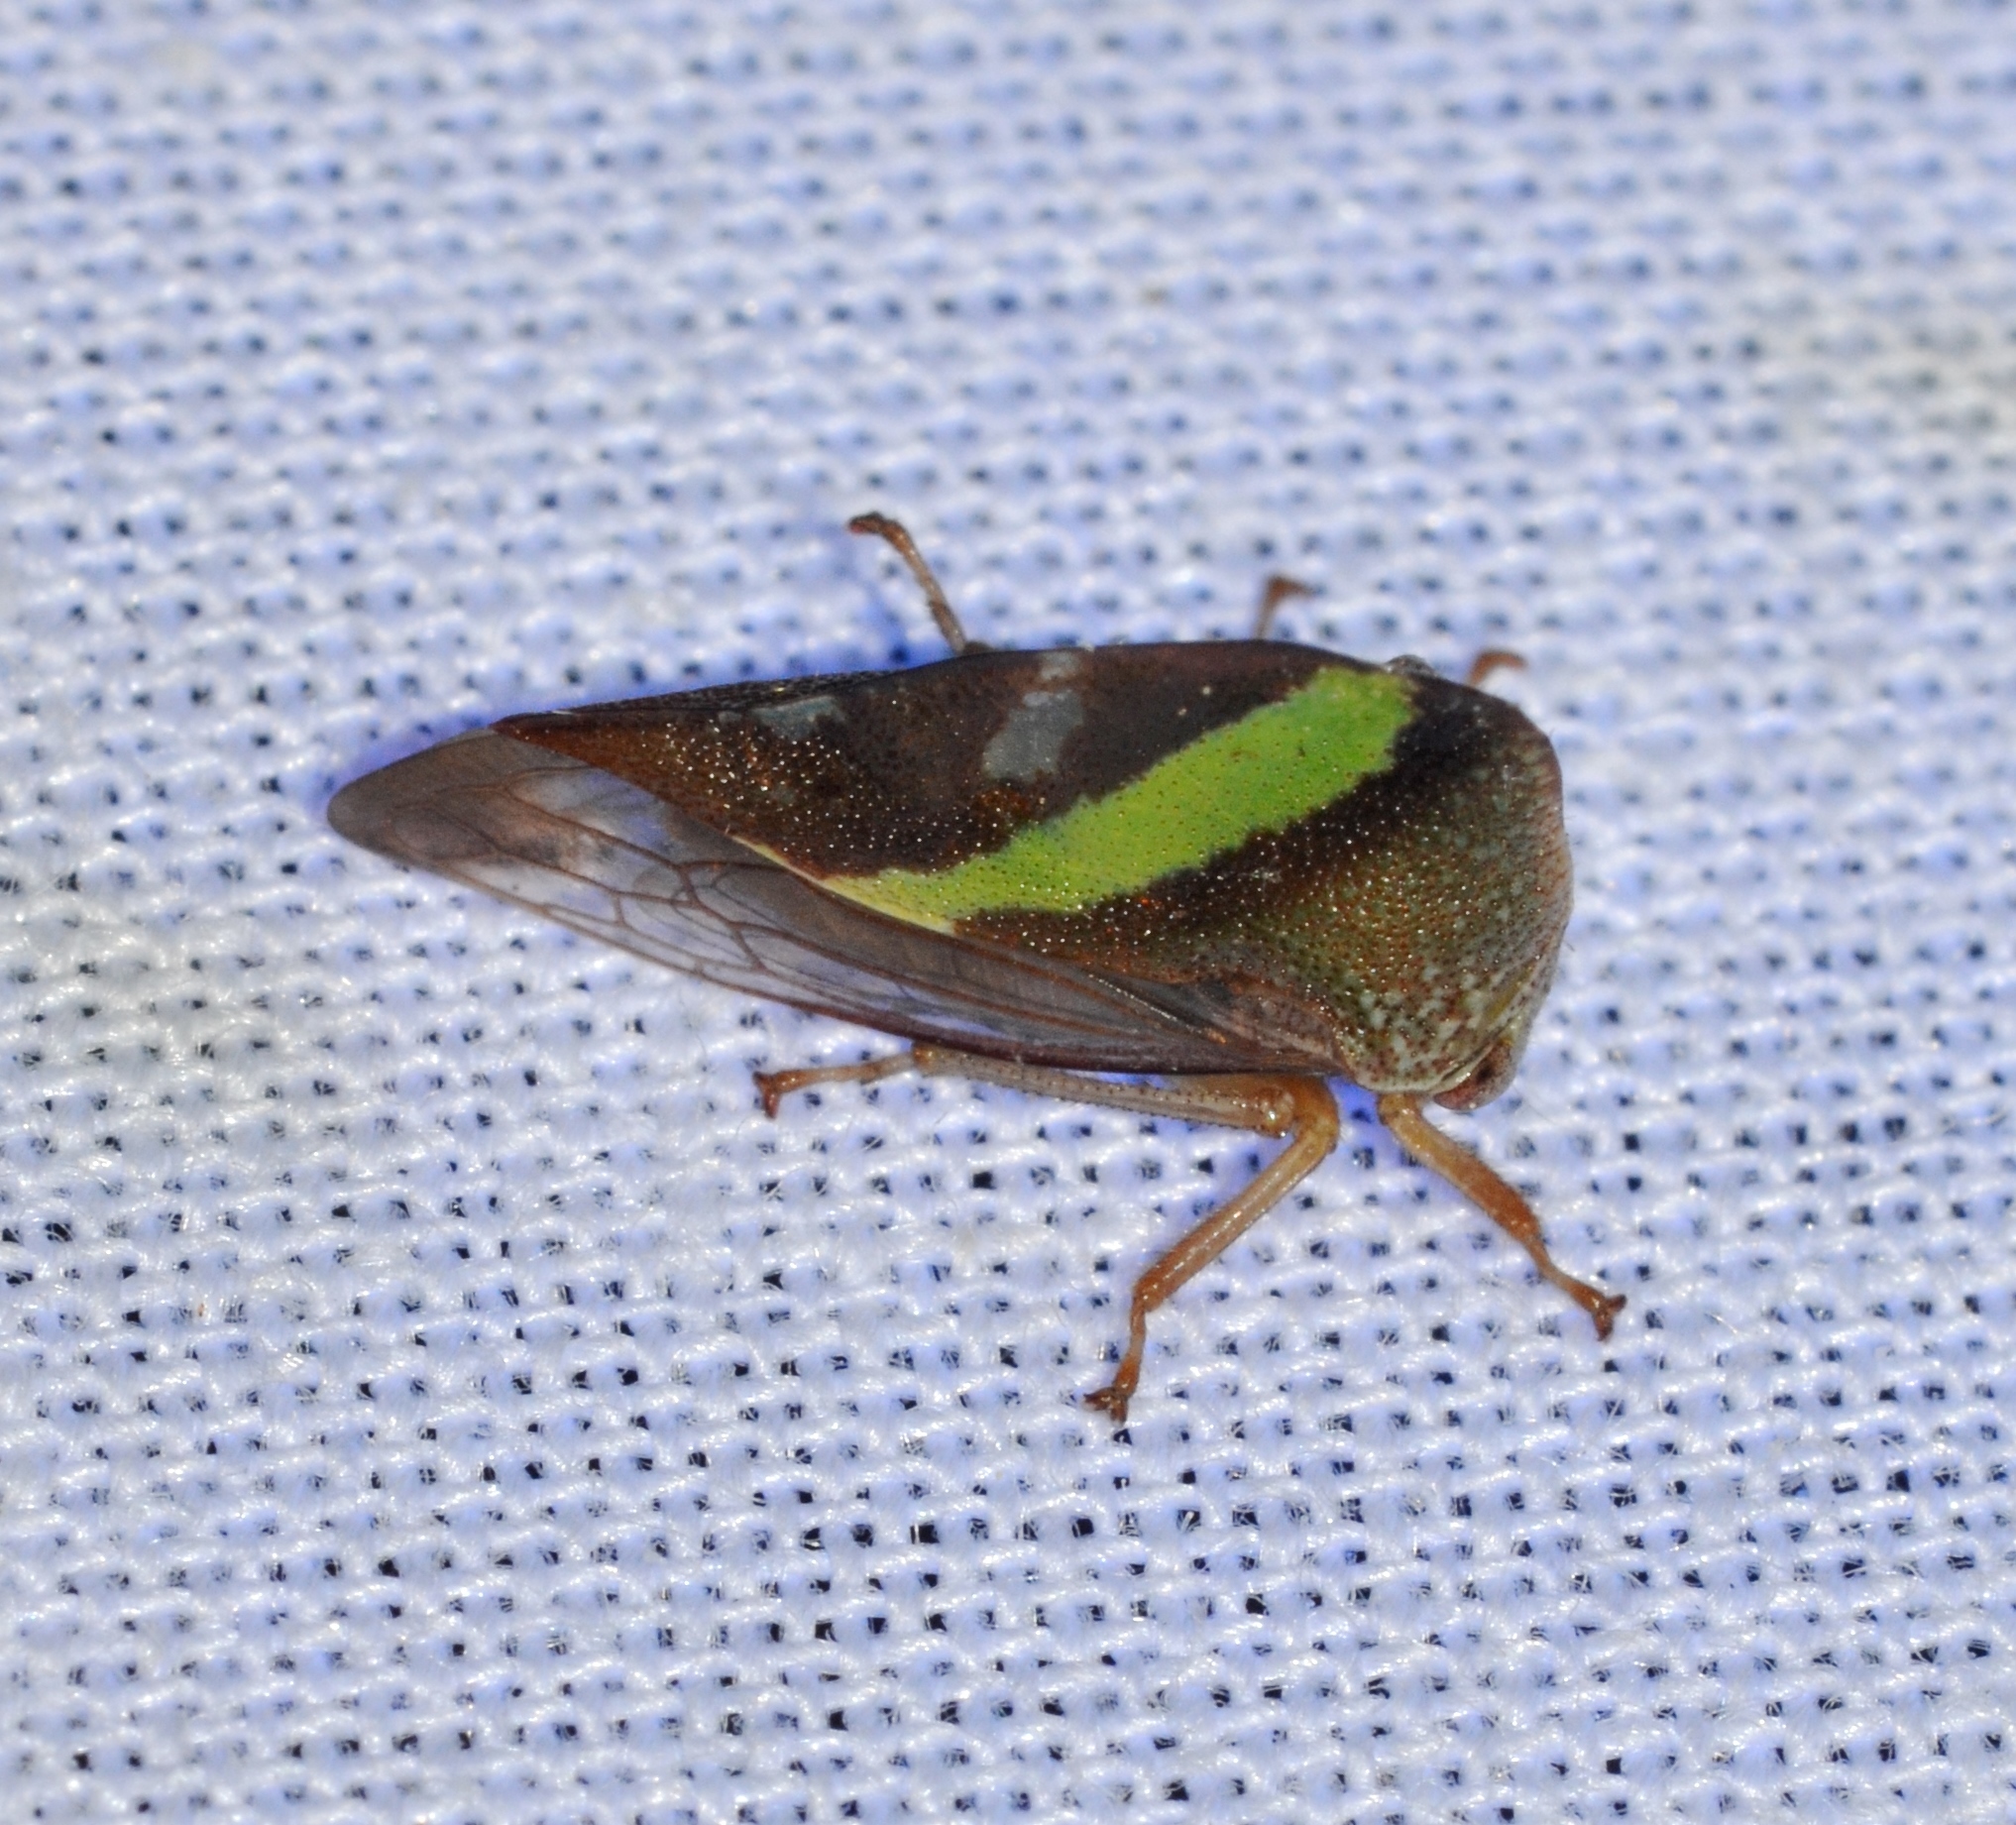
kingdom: Animalia
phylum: Arthropoda
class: Insecta
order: Hemiptera
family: Membracidae
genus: Smilia
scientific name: Smilia camelus
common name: Camel treehopper
